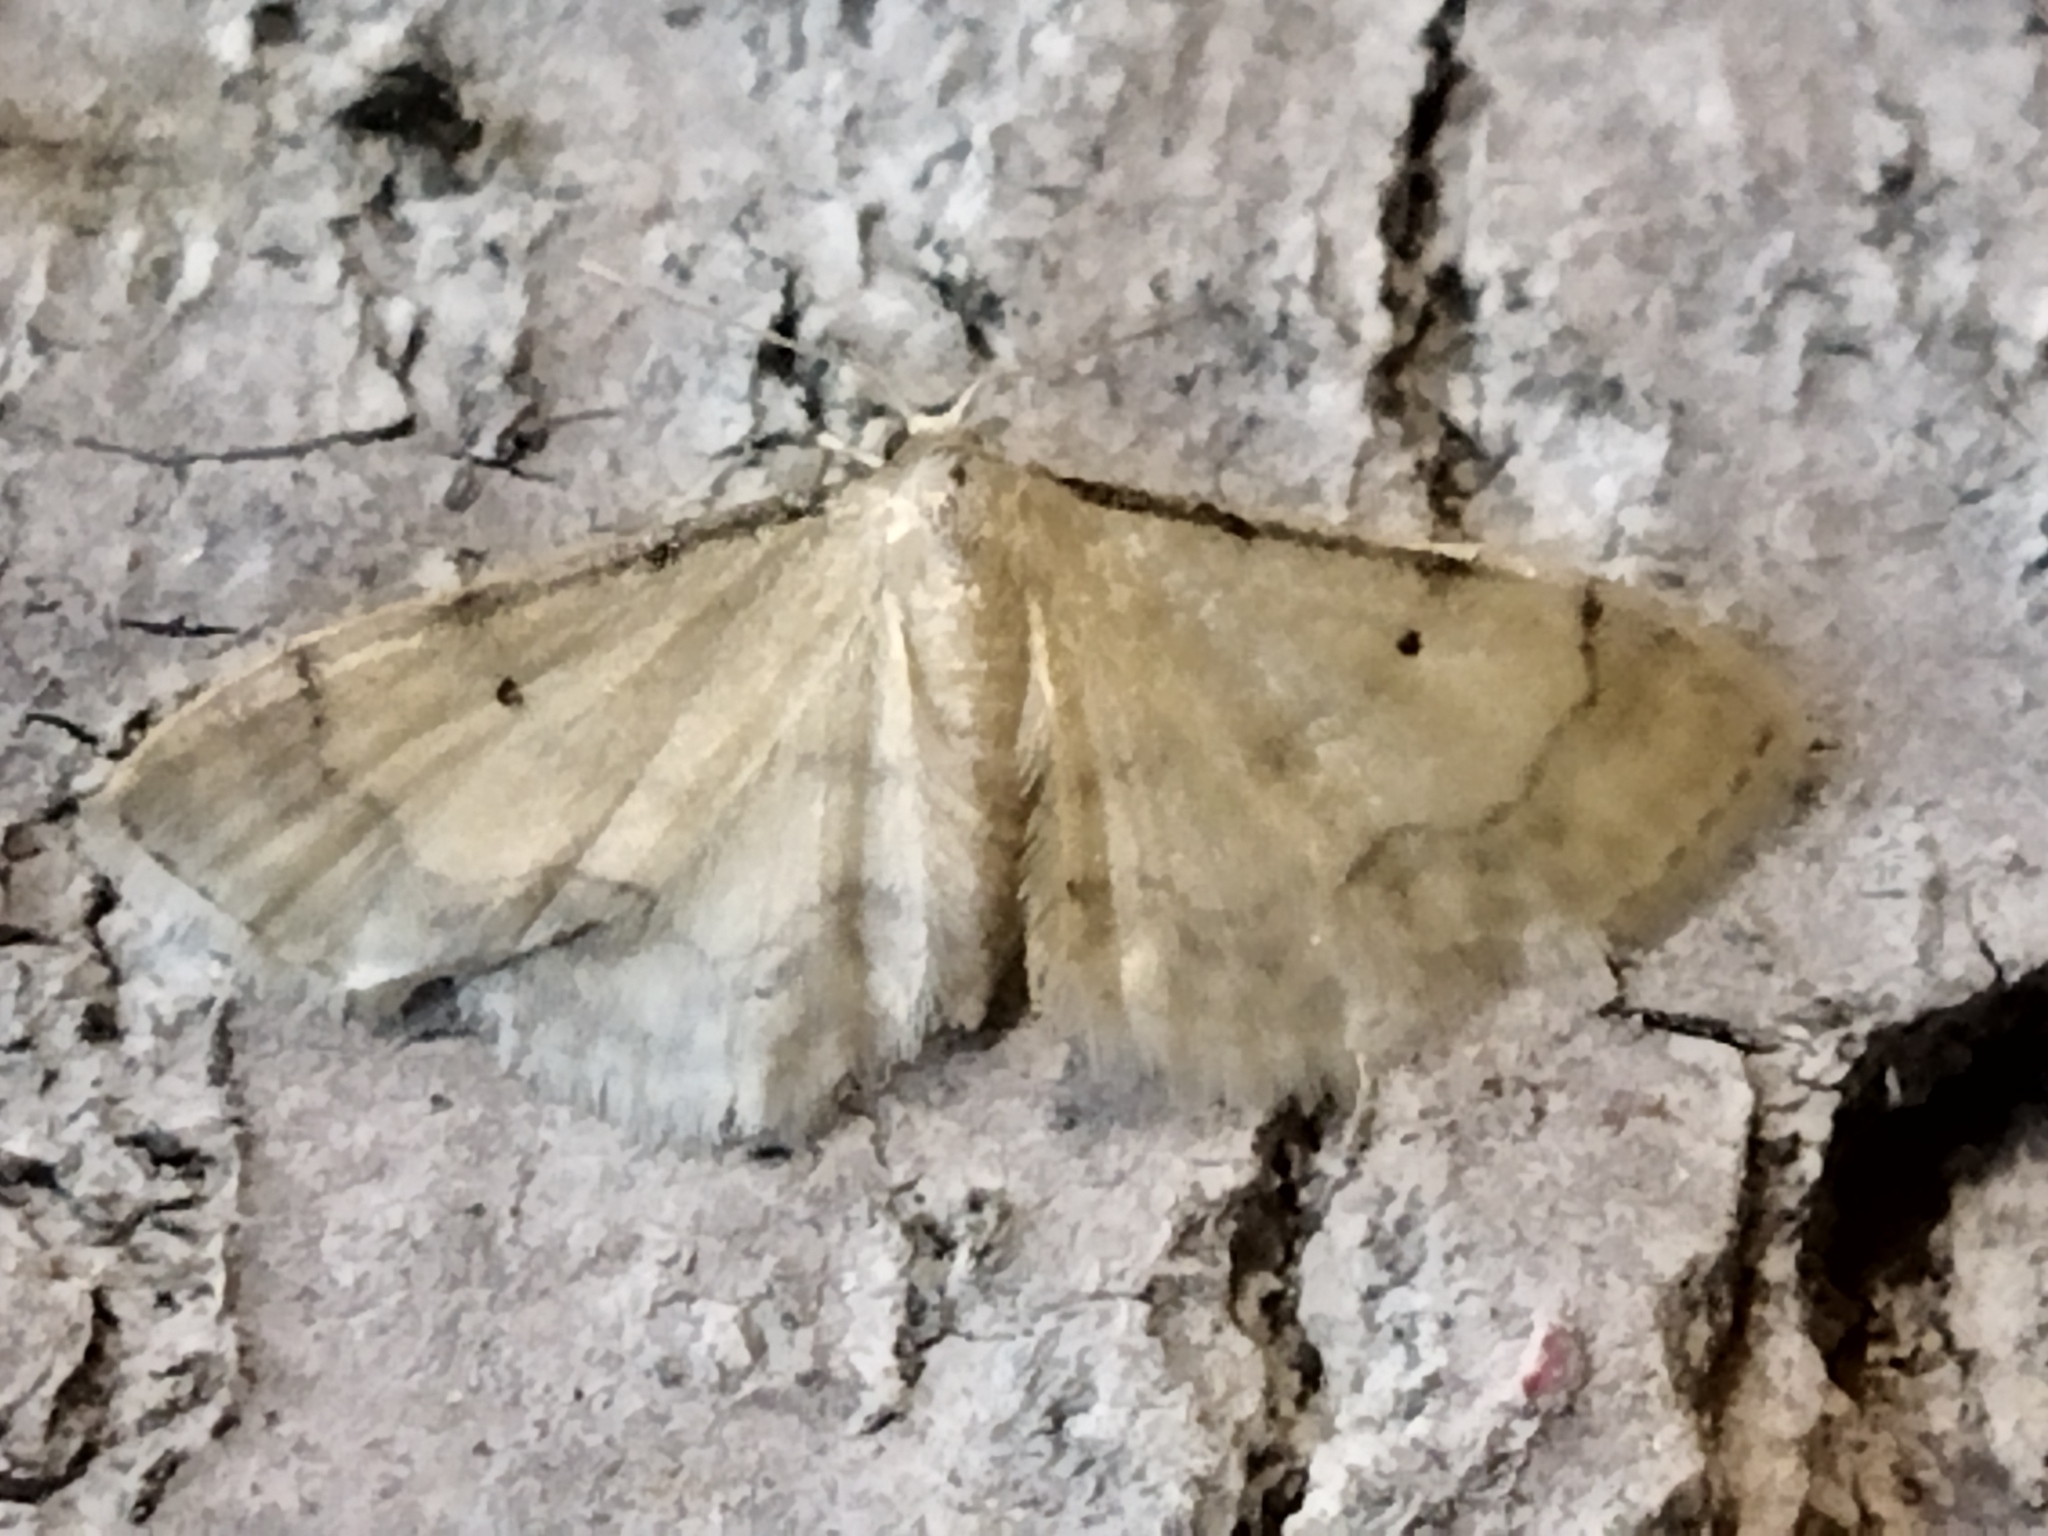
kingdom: Animalia
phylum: Arthropoda
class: Insecta
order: Lepidoptera
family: Geometridae
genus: Idaea
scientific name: Idaea politaria
